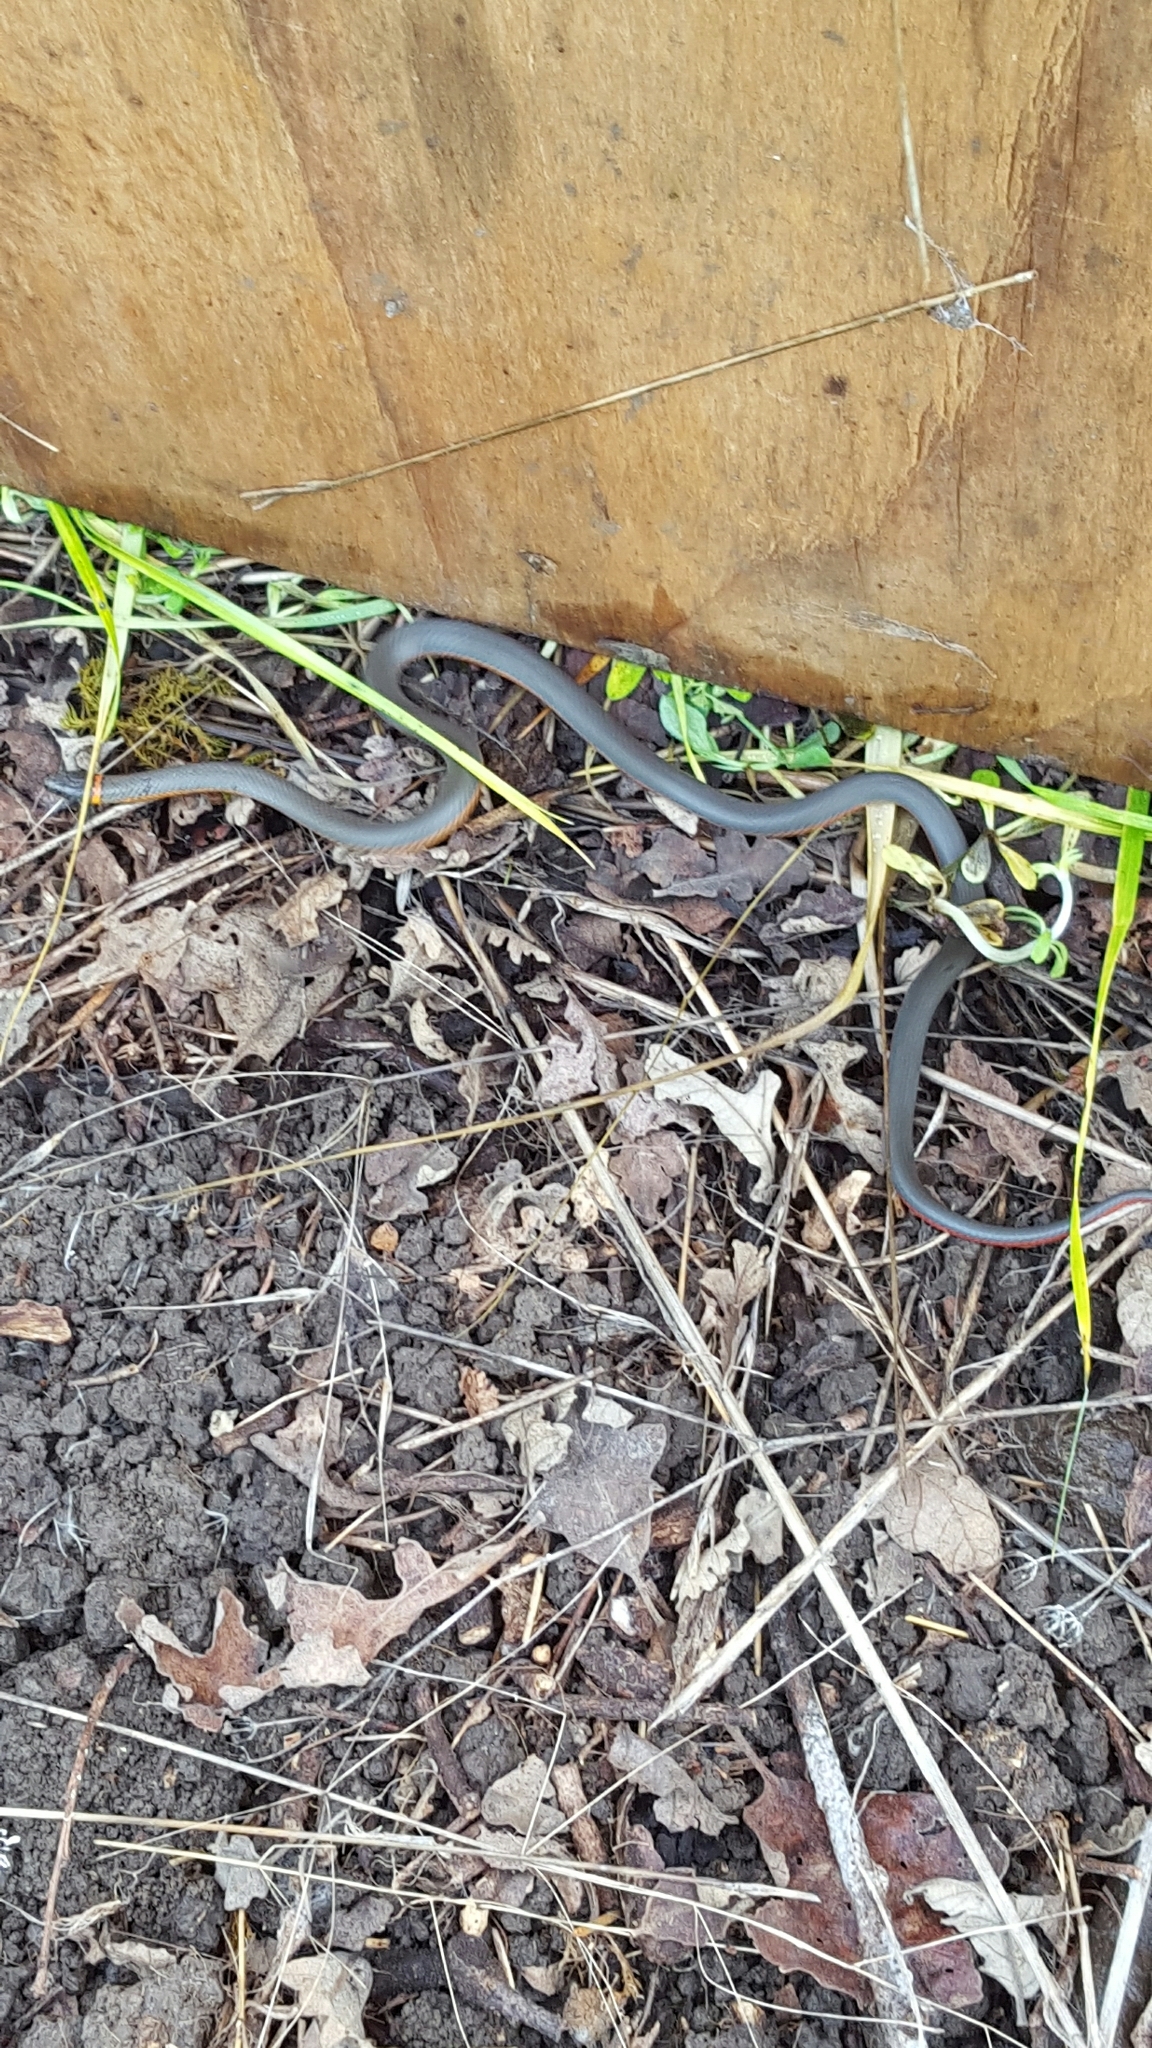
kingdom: Animalia
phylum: Chordata
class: Squamata
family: Colubridae
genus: Diadophis
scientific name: Diadophis punctatus
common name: Ringneck snake
